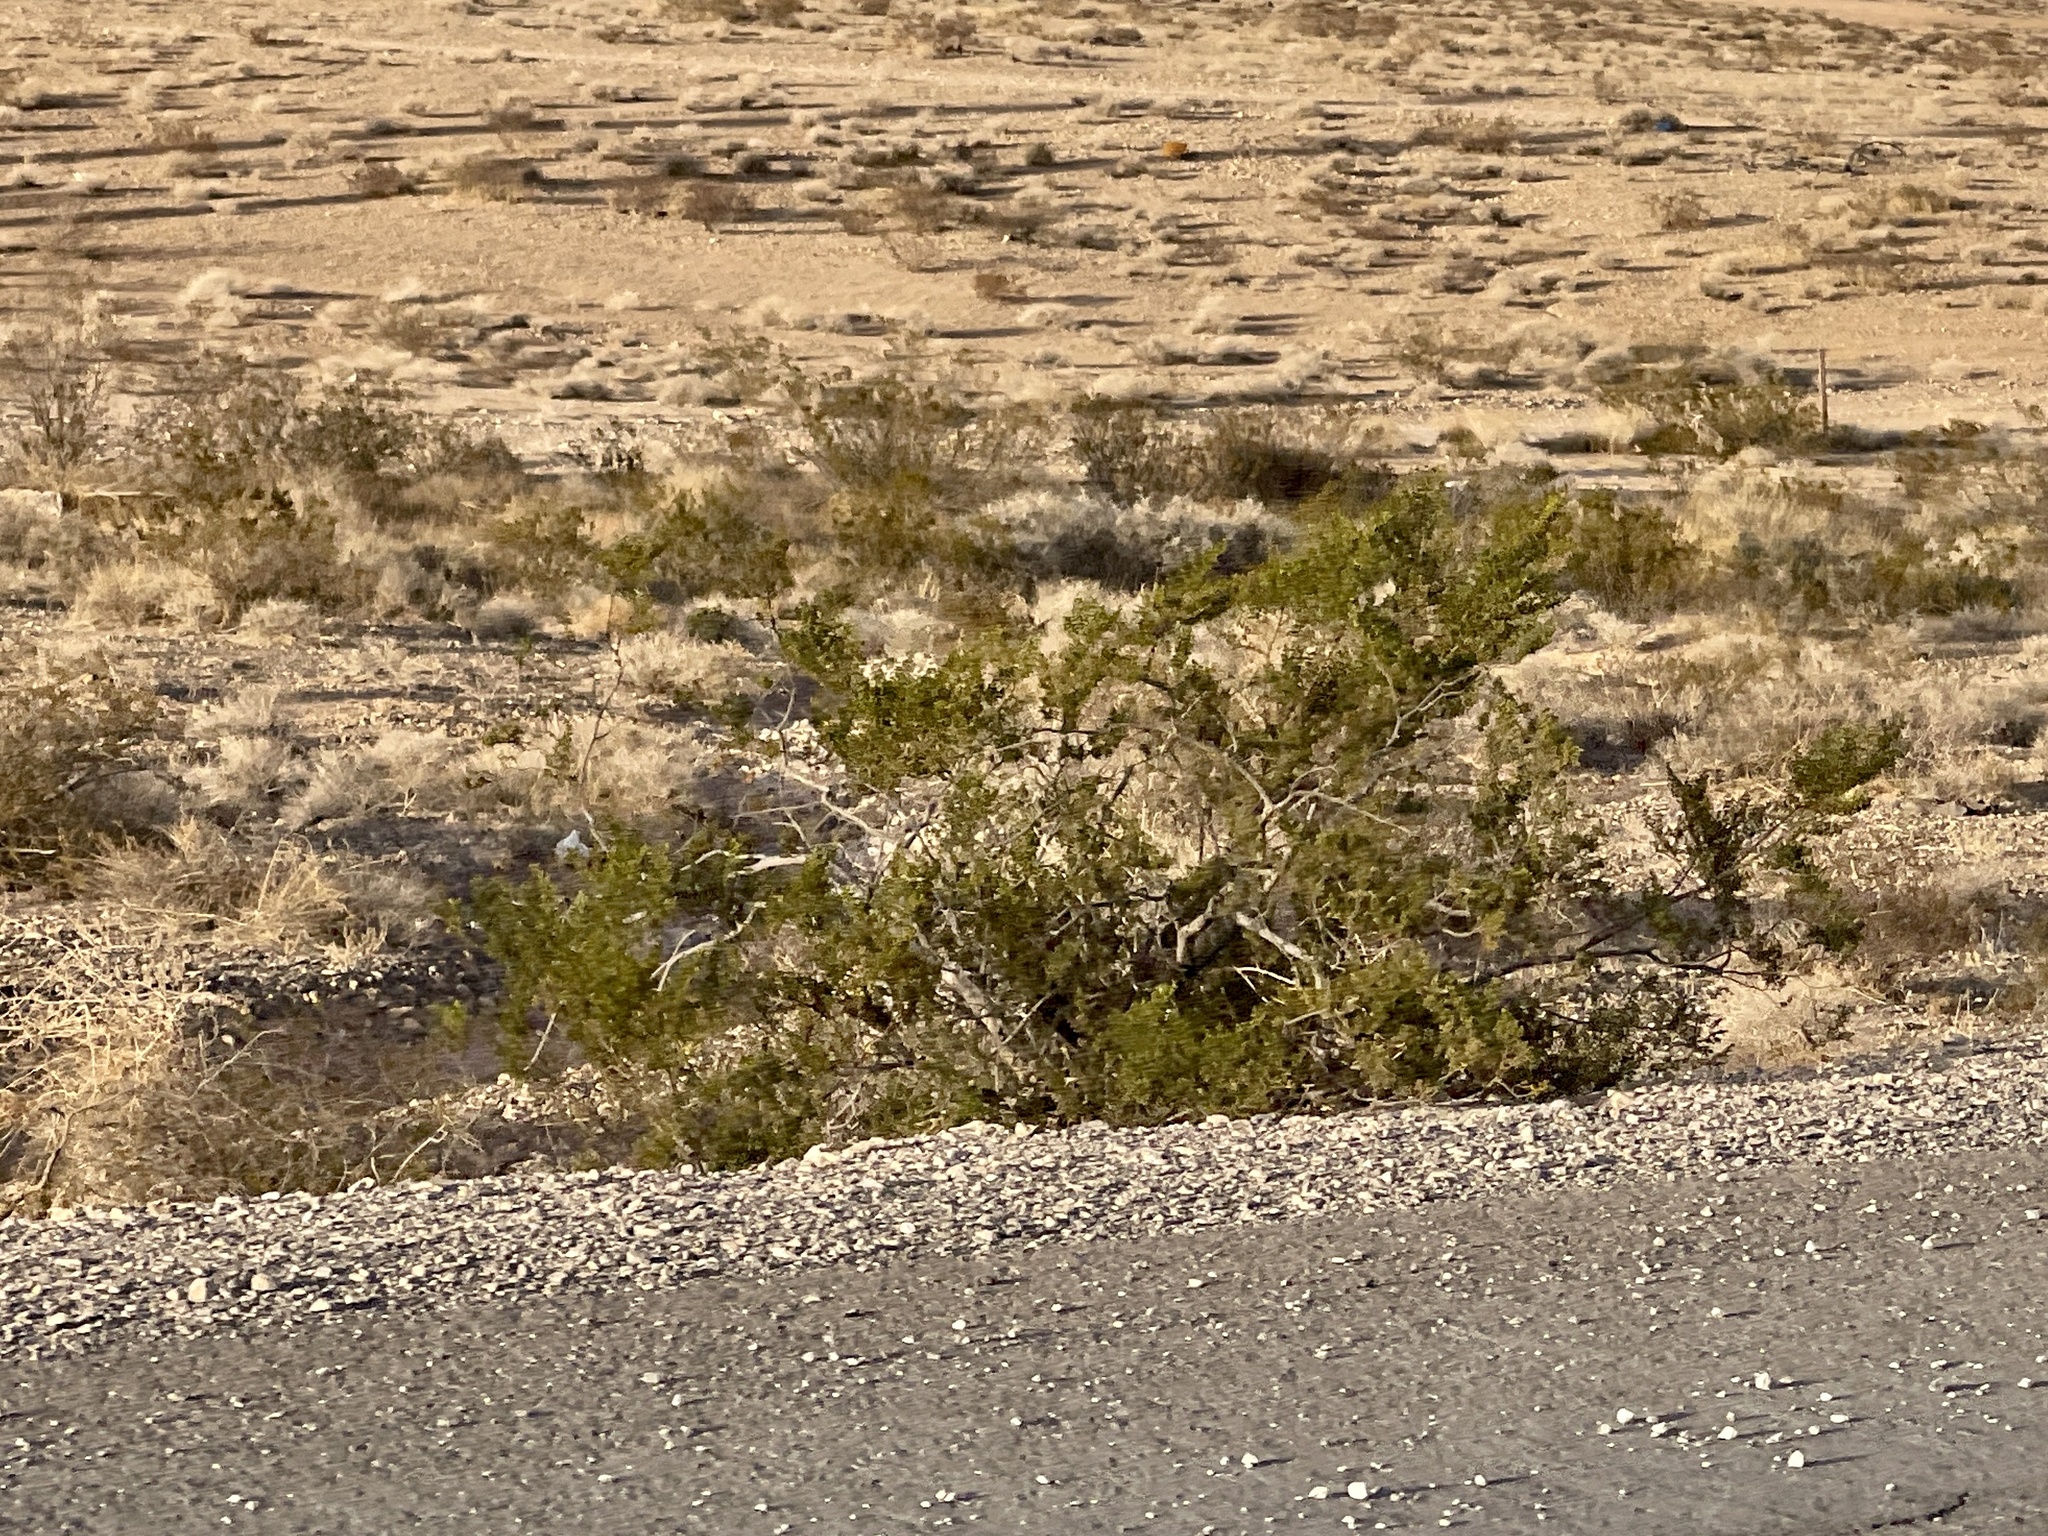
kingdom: Plantae
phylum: Tracheophyta
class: Magnoliopsida
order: Zygophyllales
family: Zygophyllaceae
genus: Larrea
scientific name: Larrea tridentata
